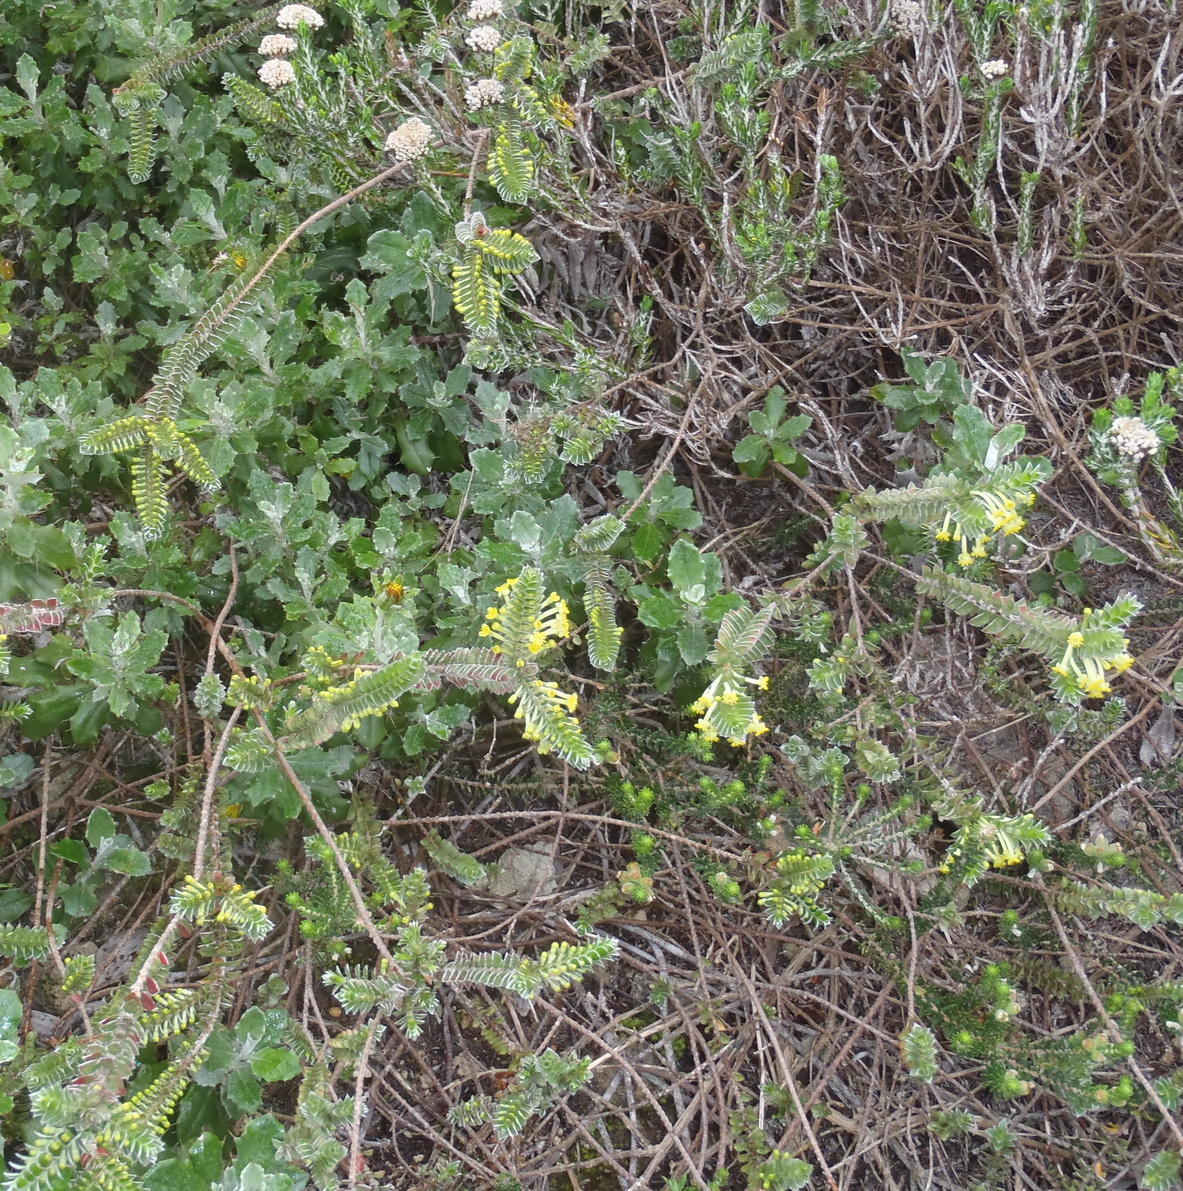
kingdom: Plantae
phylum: Tracheophyta
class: Magnoliopsida
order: Malvales
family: Thymelaeaceae
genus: Struthiola
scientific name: Struthiola argentea
